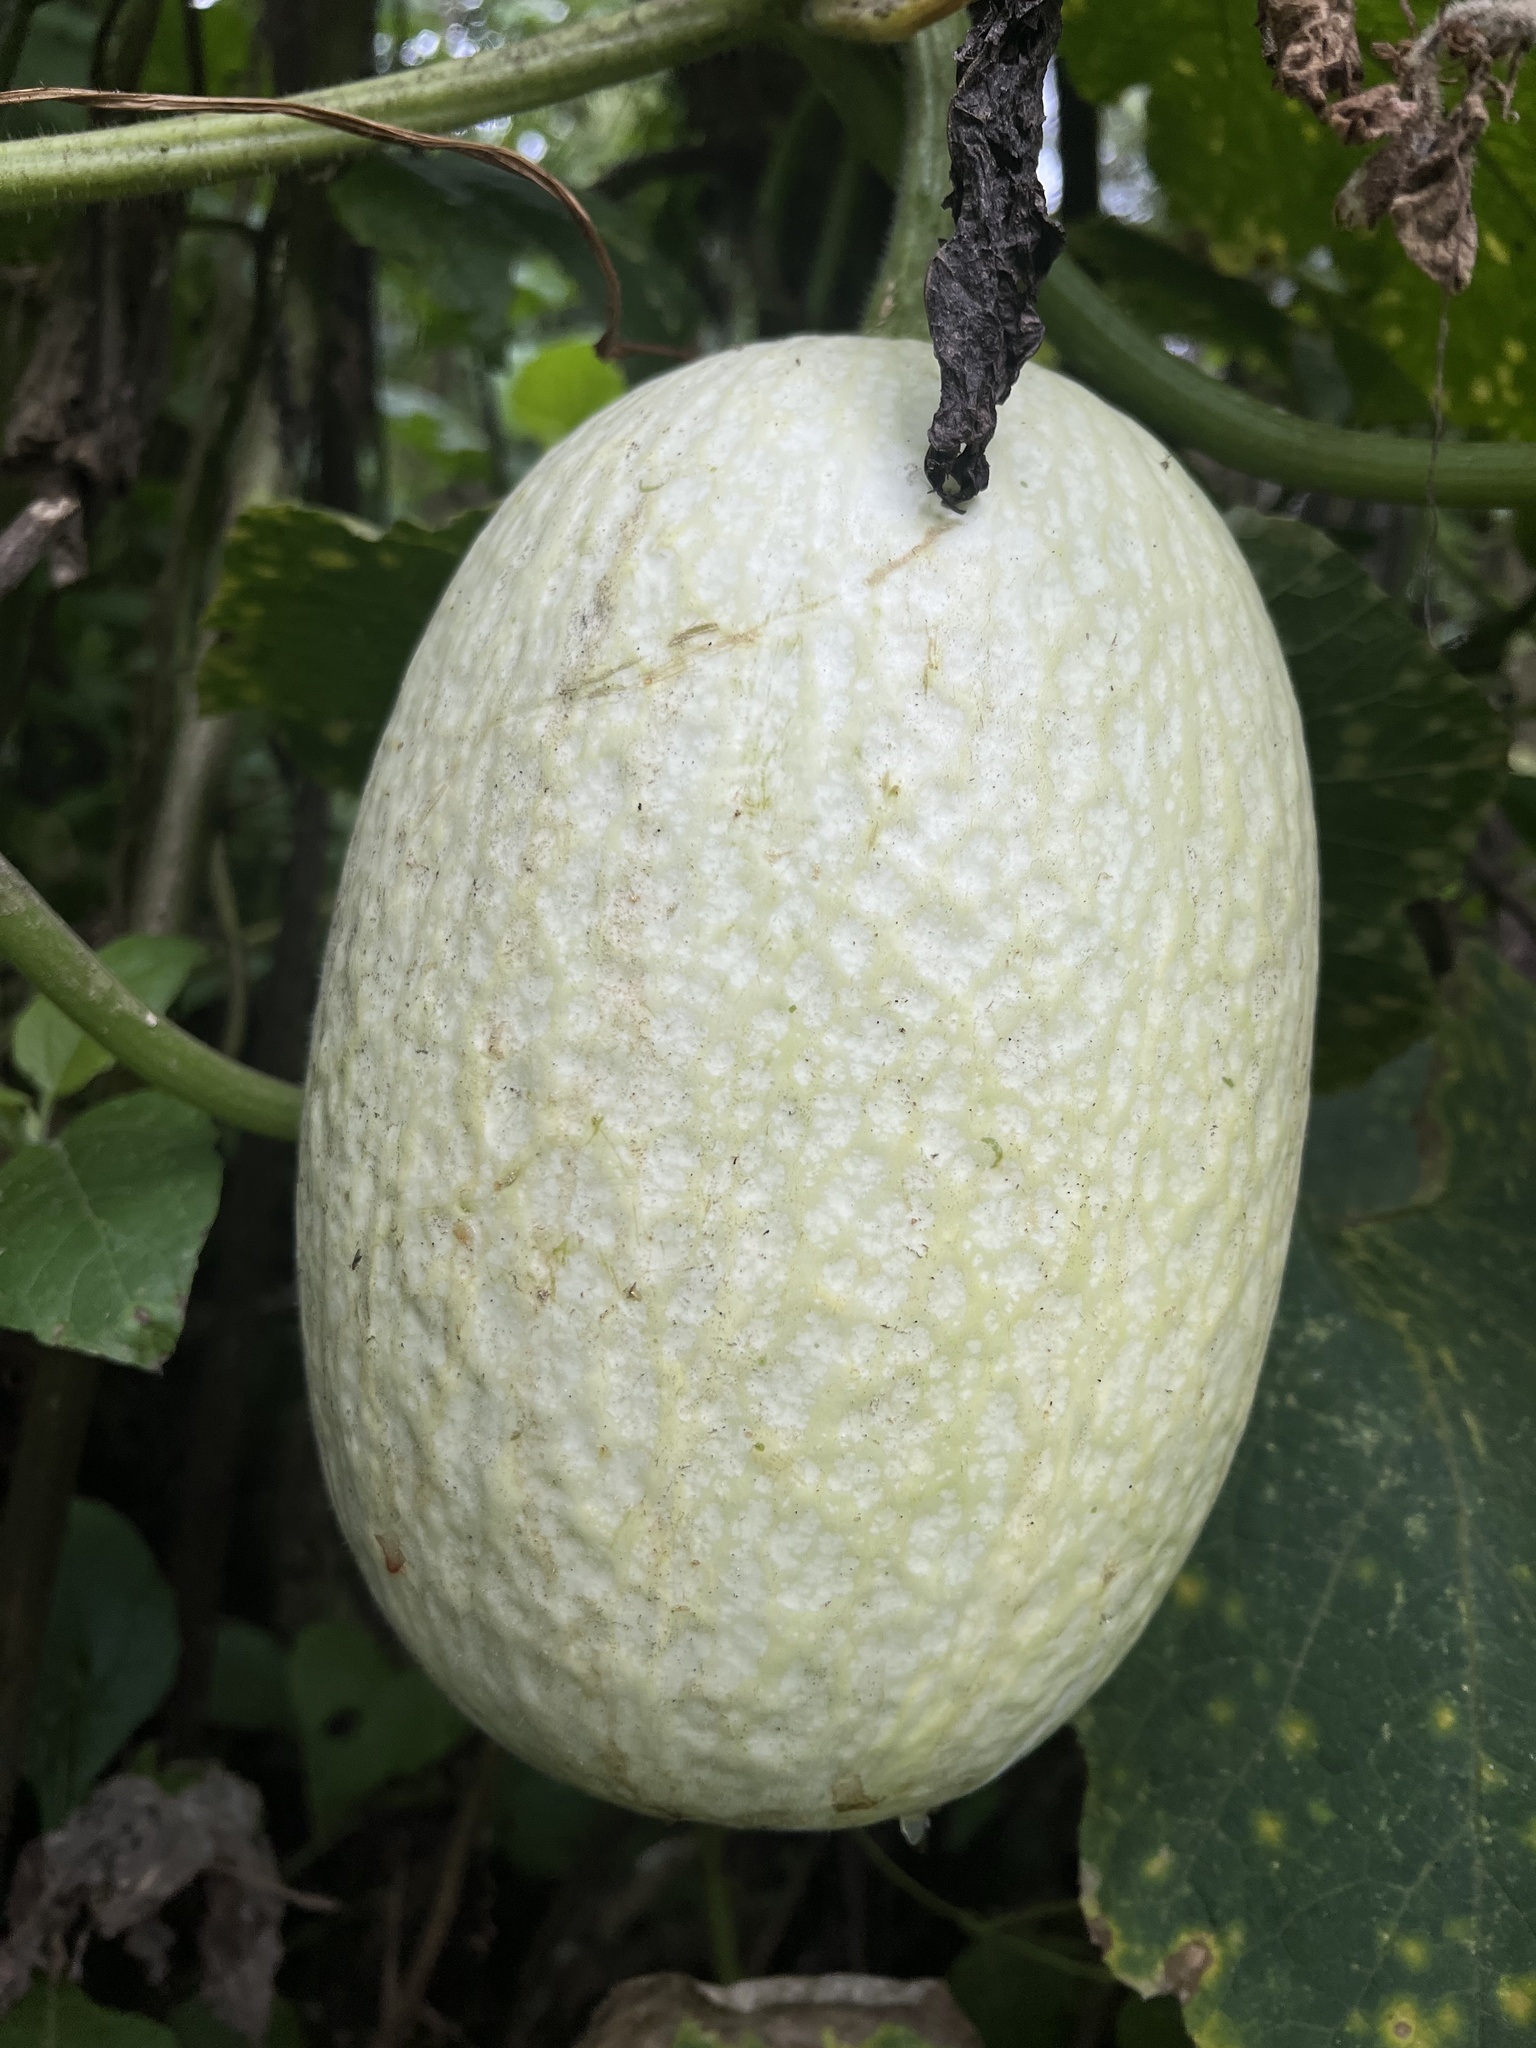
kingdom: Plantae
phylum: Tracheophyta
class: Magnoliopsida
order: Cucurbitales
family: Cucurbitaceae
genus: Cucurbita
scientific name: Cucurbita ficifolia
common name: Figleaf gourd
